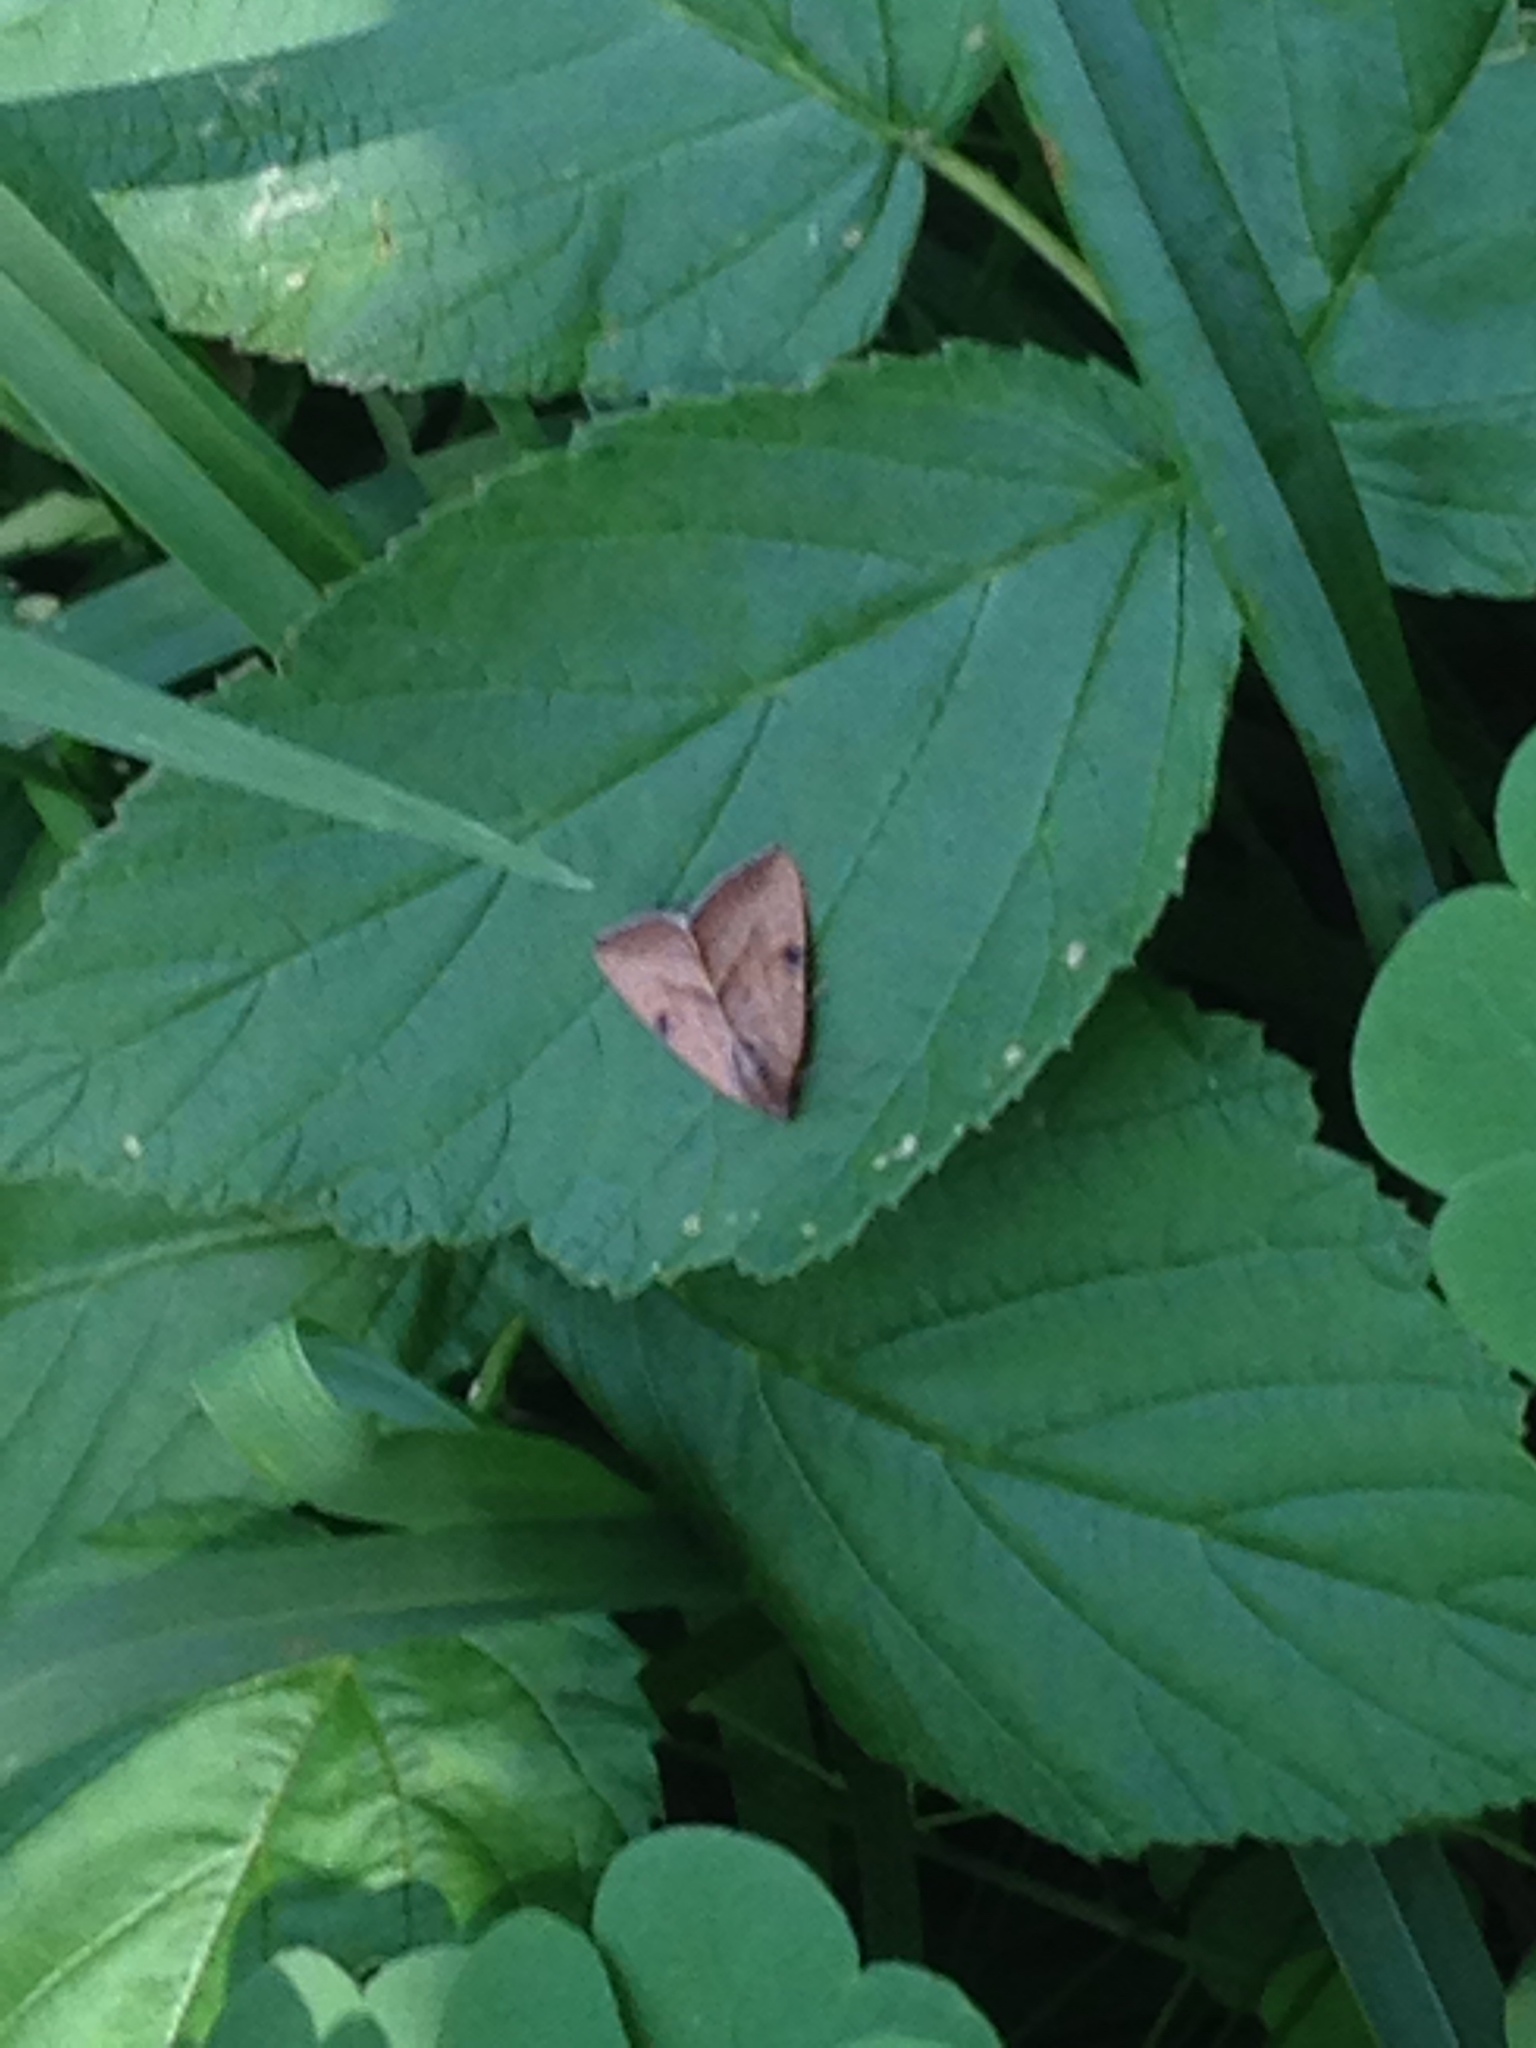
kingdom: Animalia
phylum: Arthropoda
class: Insecta
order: Lepidoptera
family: Noctuidae
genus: Galgula
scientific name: Galgula partita
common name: Wedgeling
